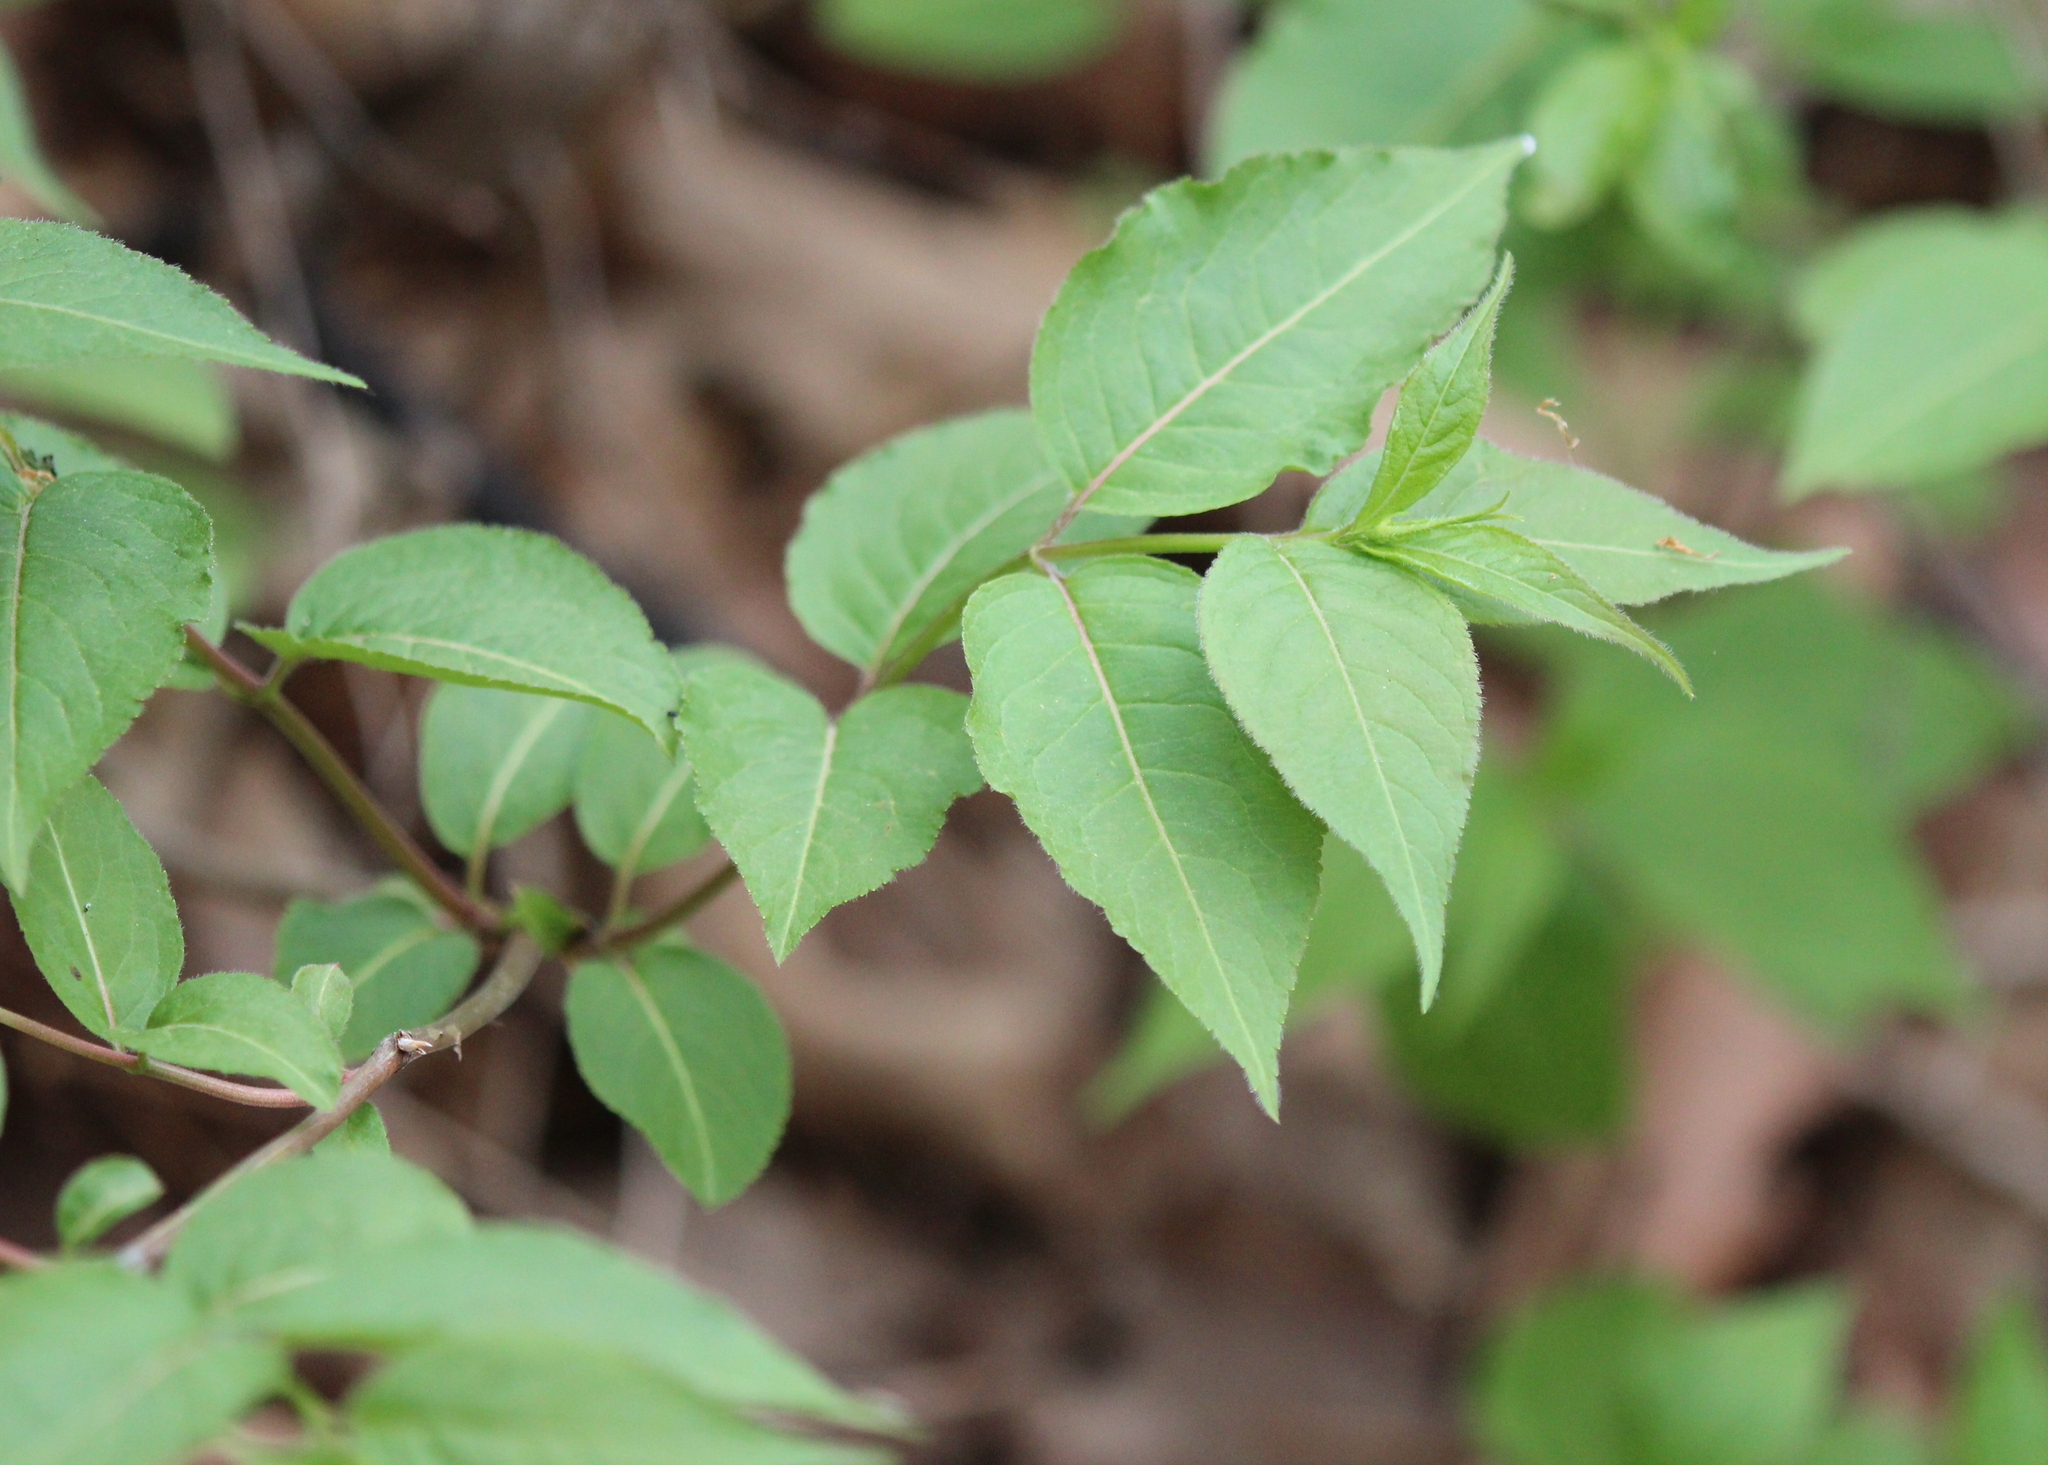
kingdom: Plantae
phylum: Tracheophyta
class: Magnoliopsida
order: Dipsacales
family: Caprifoliaceae
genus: Diervilla
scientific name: Diervilla lonicera
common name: Bush-honeysuckle
